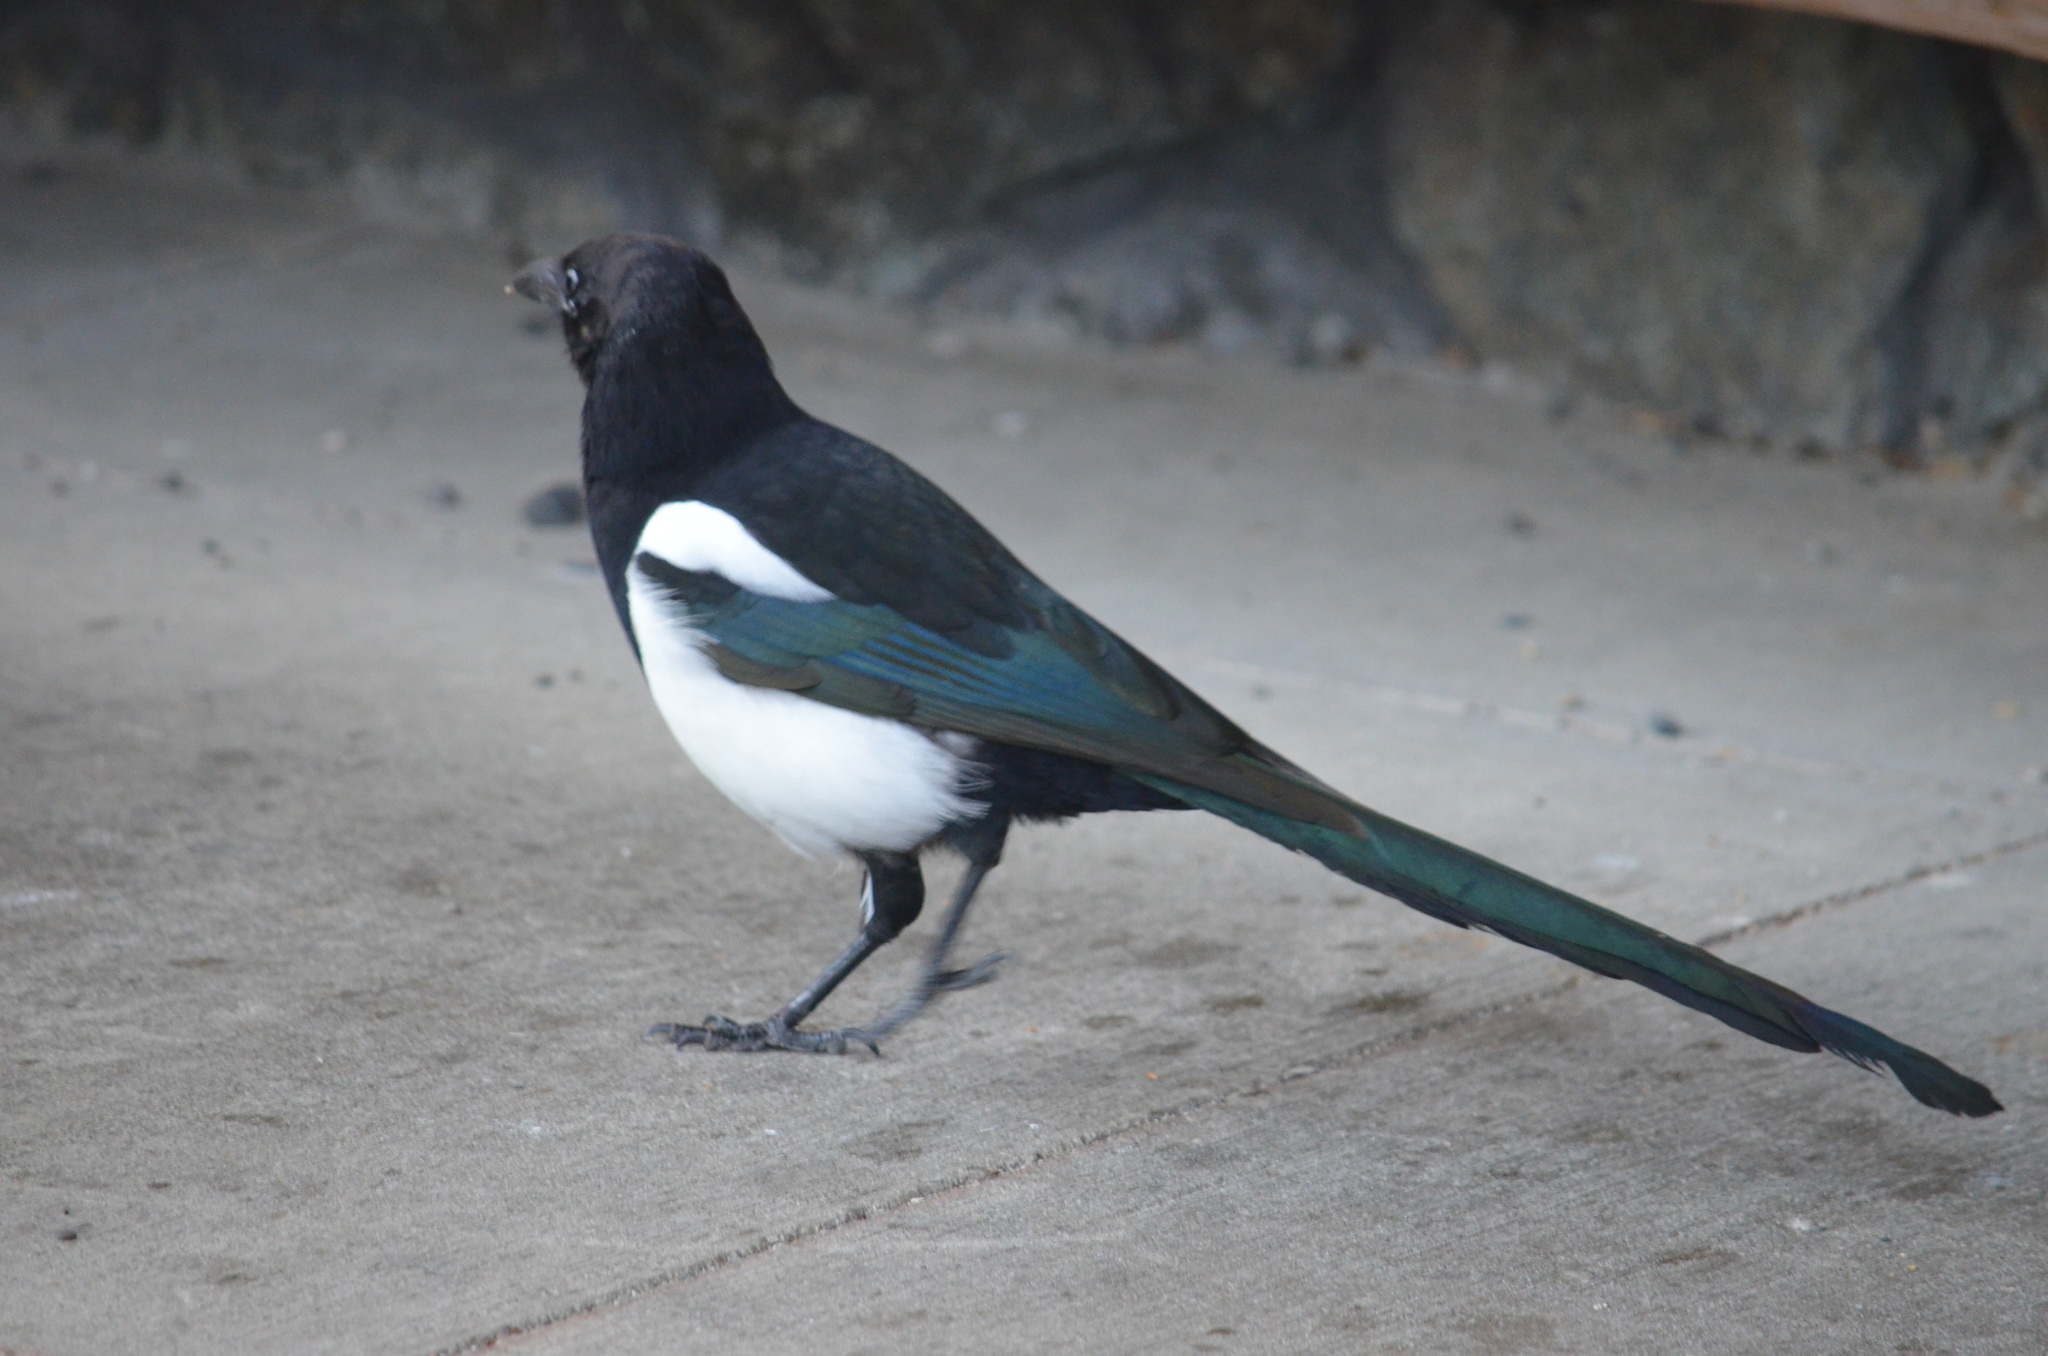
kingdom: Animalia
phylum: Chordata
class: Aves
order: Passeriformes
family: Corvidae
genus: Pica
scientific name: Pica hudsonia
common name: Black-billed magpie
